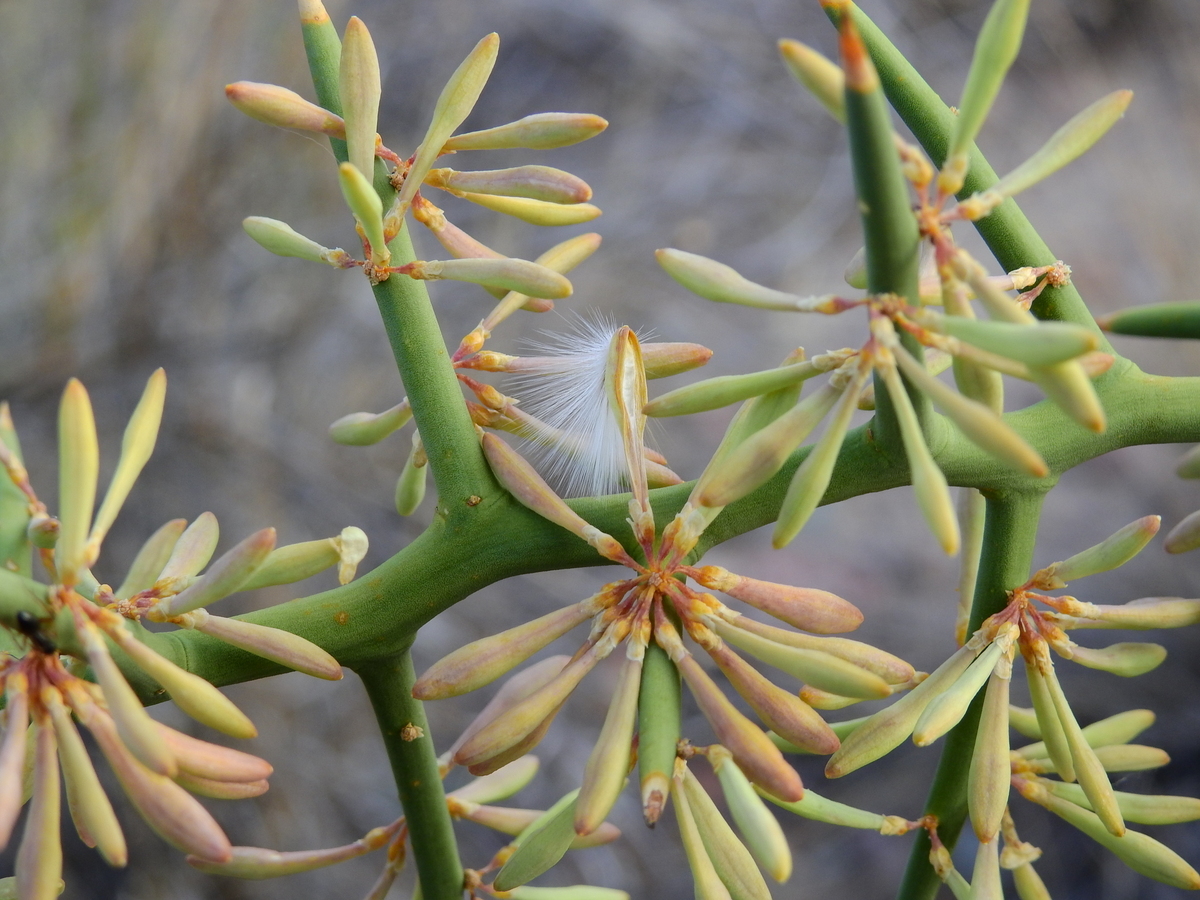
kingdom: Plantae
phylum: Tracheophyta
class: Magnoliopsida
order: Fabales
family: Polygalaceae
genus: Bredemeyera
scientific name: Bredemeyera colletioides
